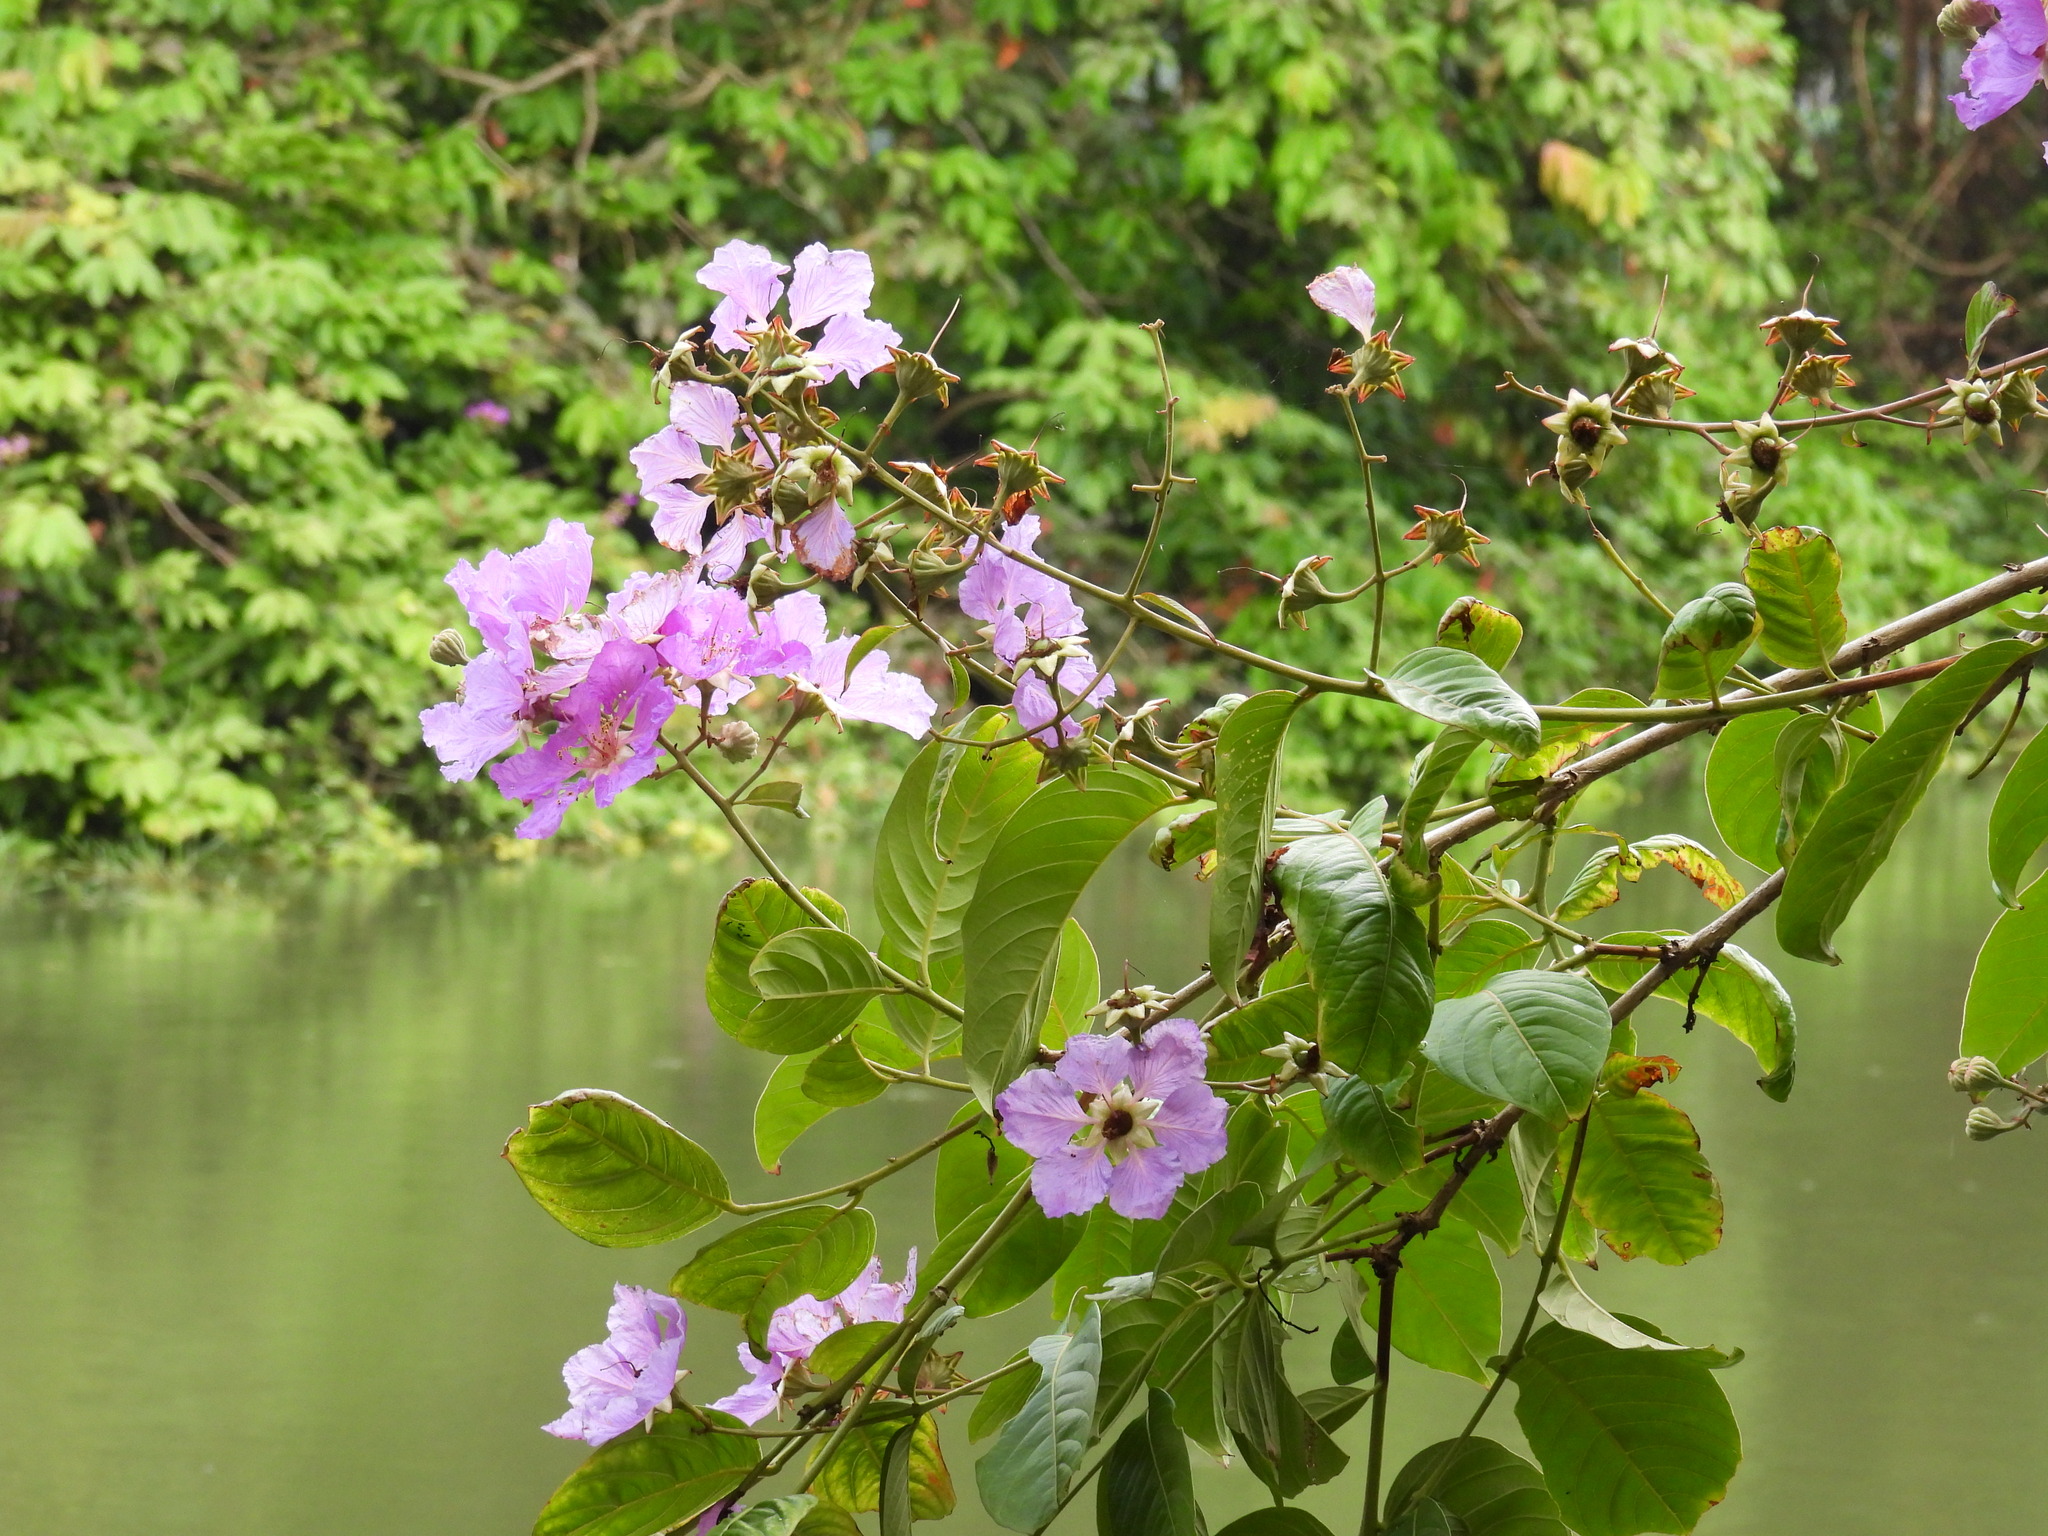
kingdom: Plantae
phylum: Tracheophyta
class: Magnoliopsida
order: Myrtales
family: Lythraceae
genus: Lagerstroemia
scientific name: Lagerstroemia speciosa
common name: Queen's crape-myrtle
